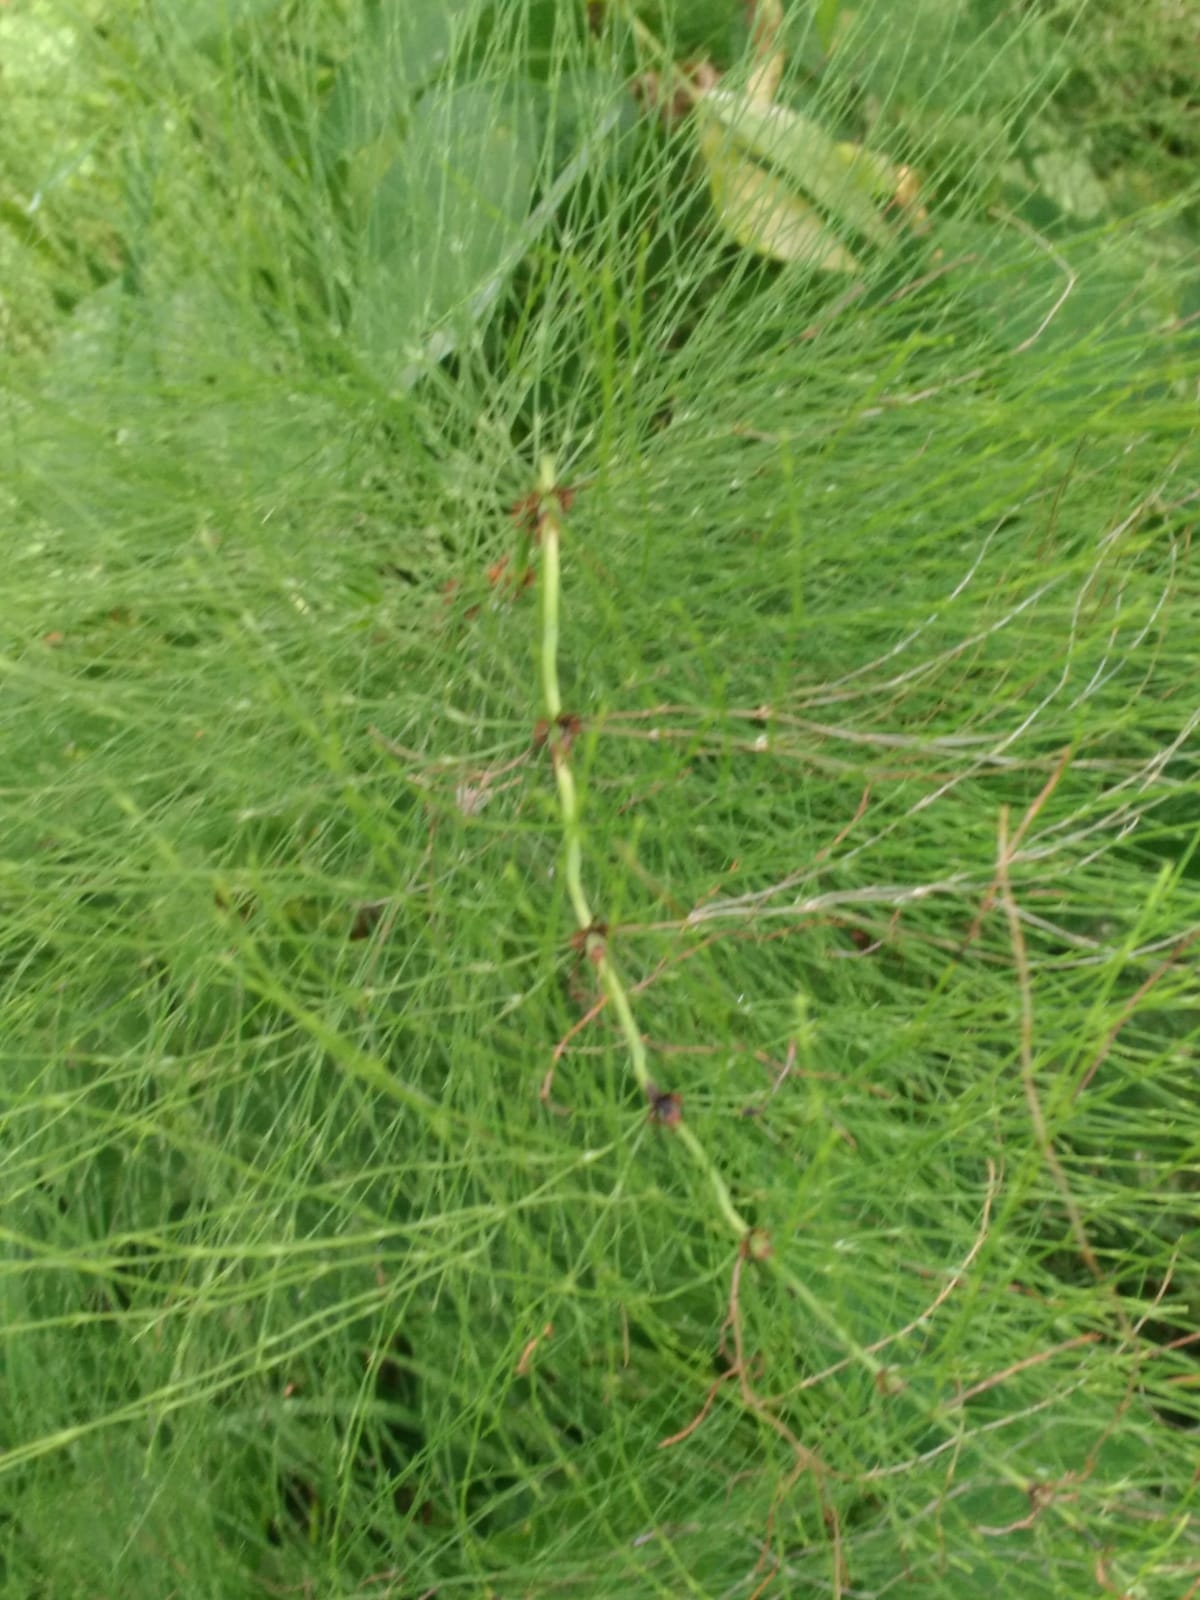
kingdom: Plantae
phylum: Tracheophyta
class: Polypodiopsida
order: Equisetales
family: Equisetaceae
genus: Equisetum
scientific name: Equisetum sylvaticum
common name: Wood horsetail
